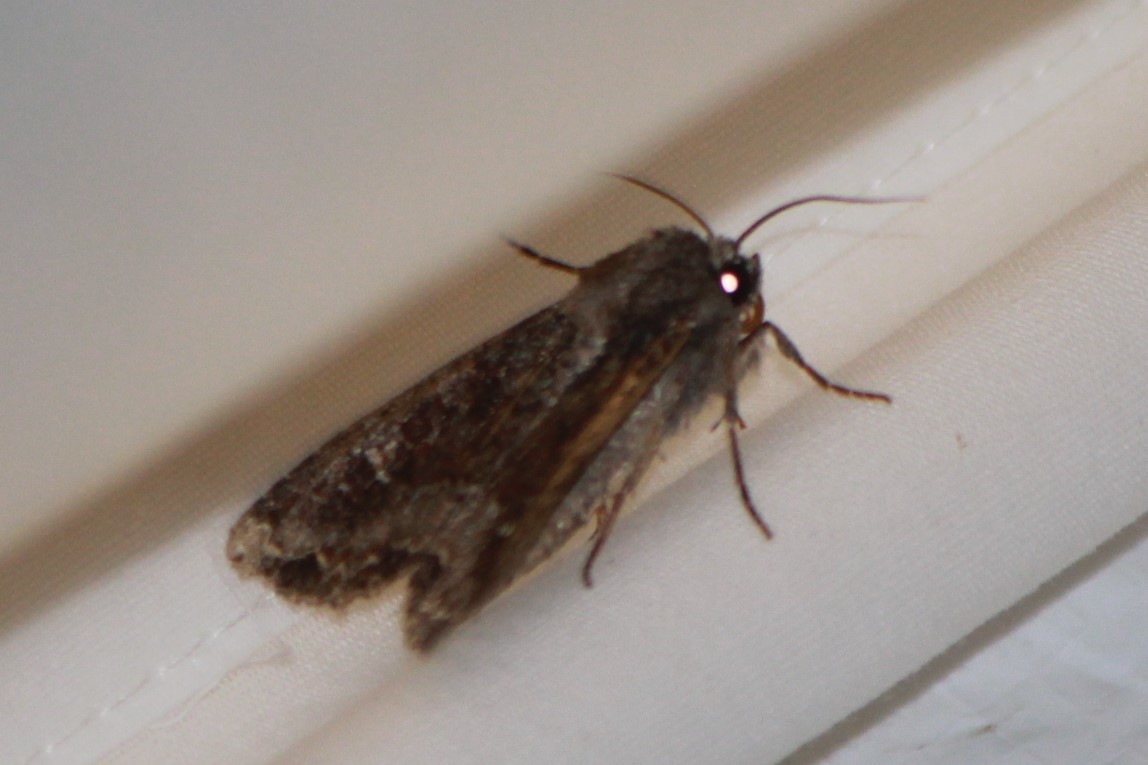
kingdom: Animalia
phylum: Arthropoda
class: Insecta
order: Lepidoptera
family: Noctuidae
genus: Apamea
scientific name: Apamea amputatrix
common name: Yellow-headed cutworm moth
